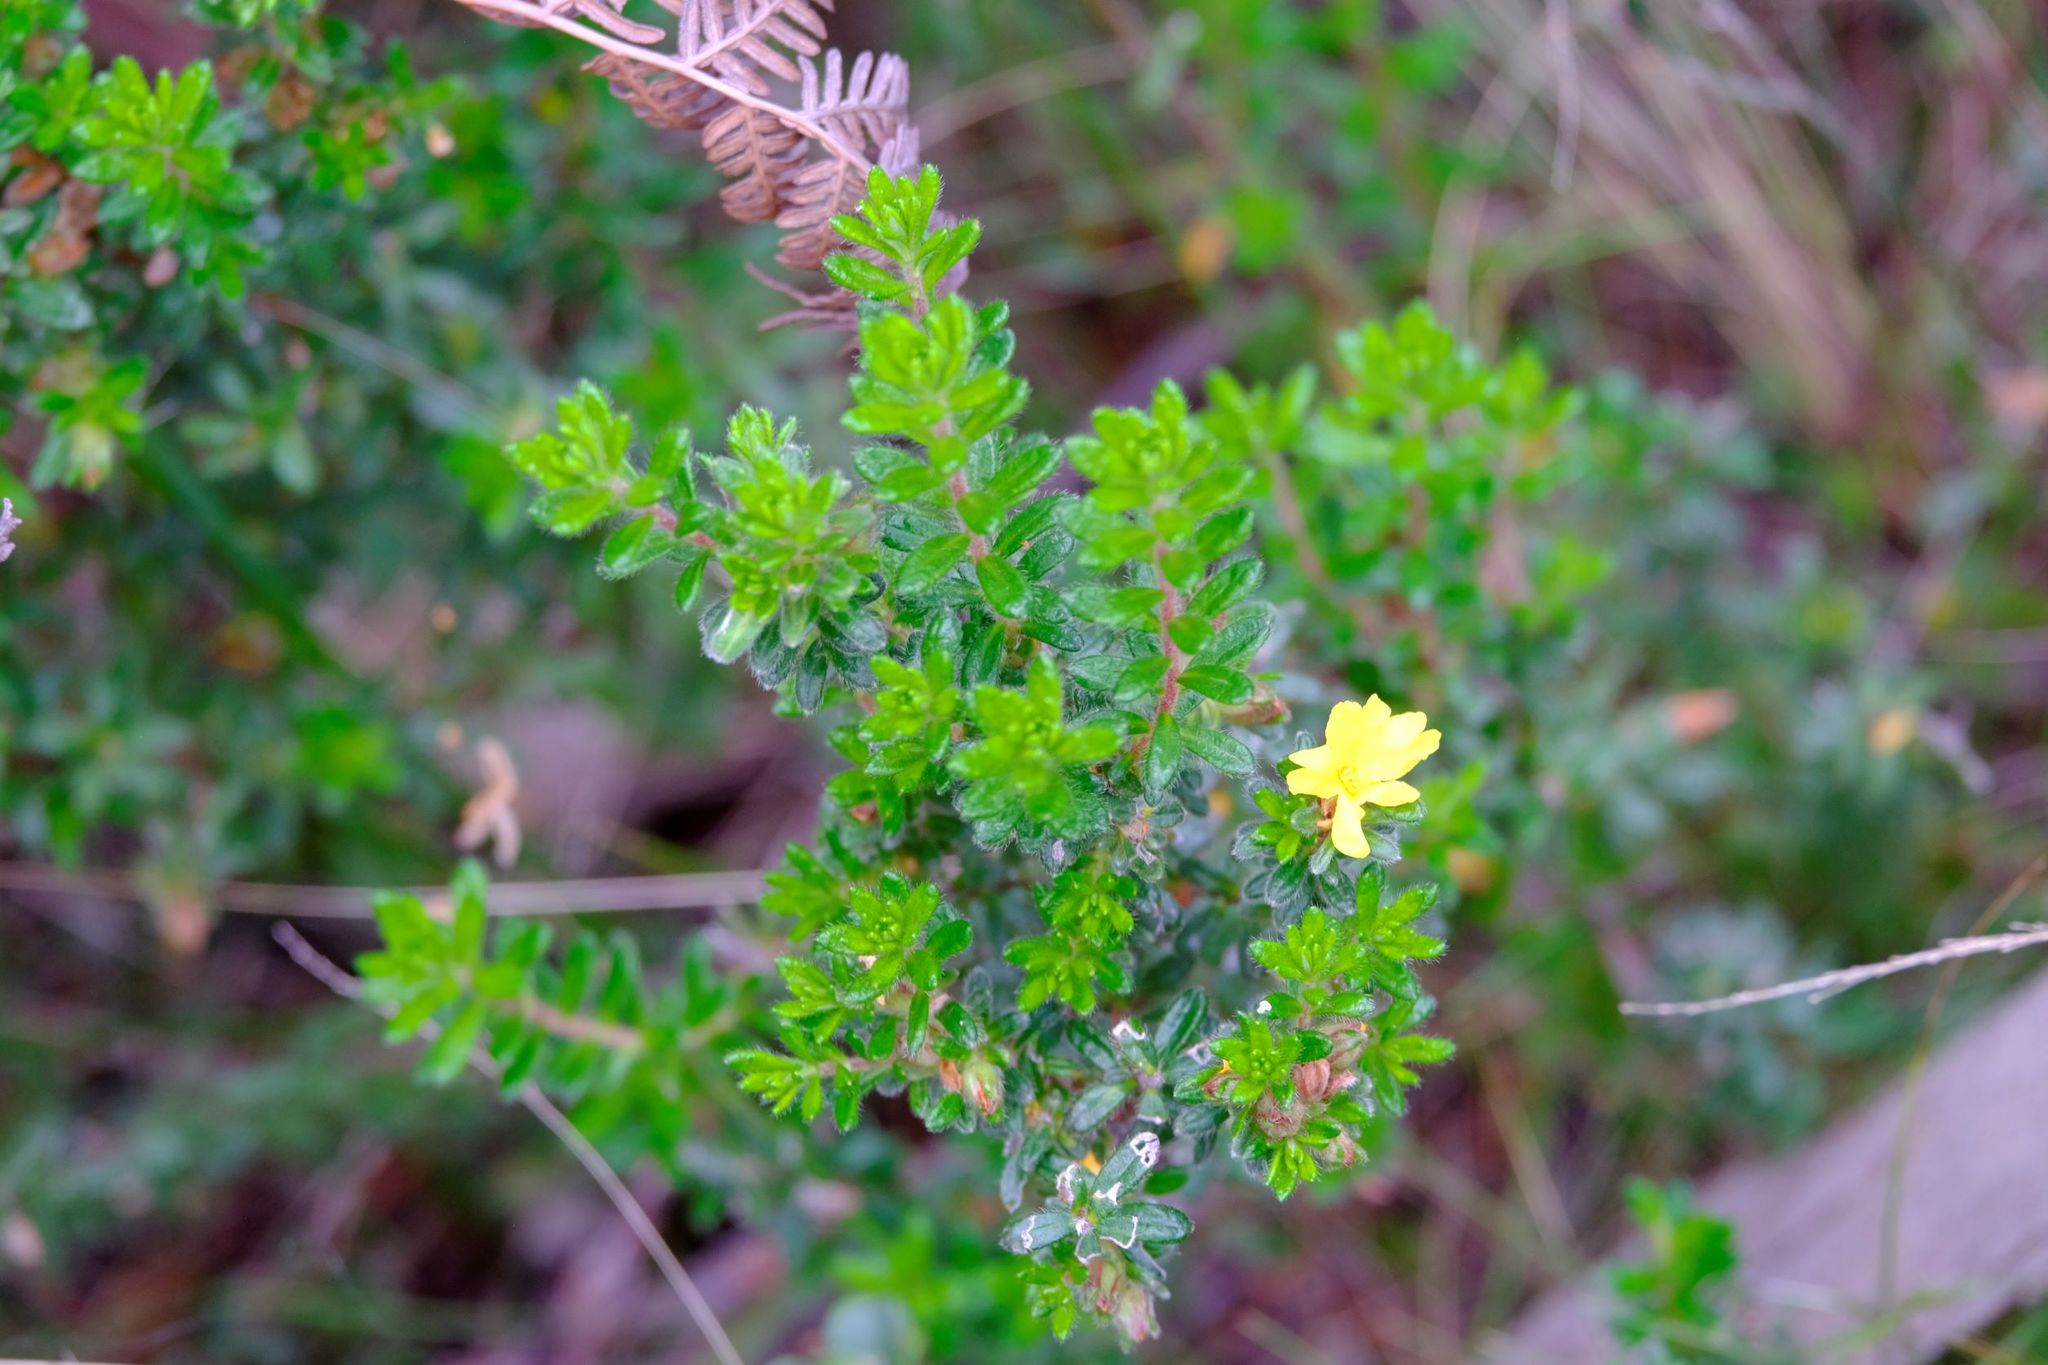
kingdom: Plantae
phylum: Tracheophyta
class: Magnoliopsida
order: Dilleniales
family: Dilleniaceae
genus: Hibbertia
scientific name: Hibbertia sericea
